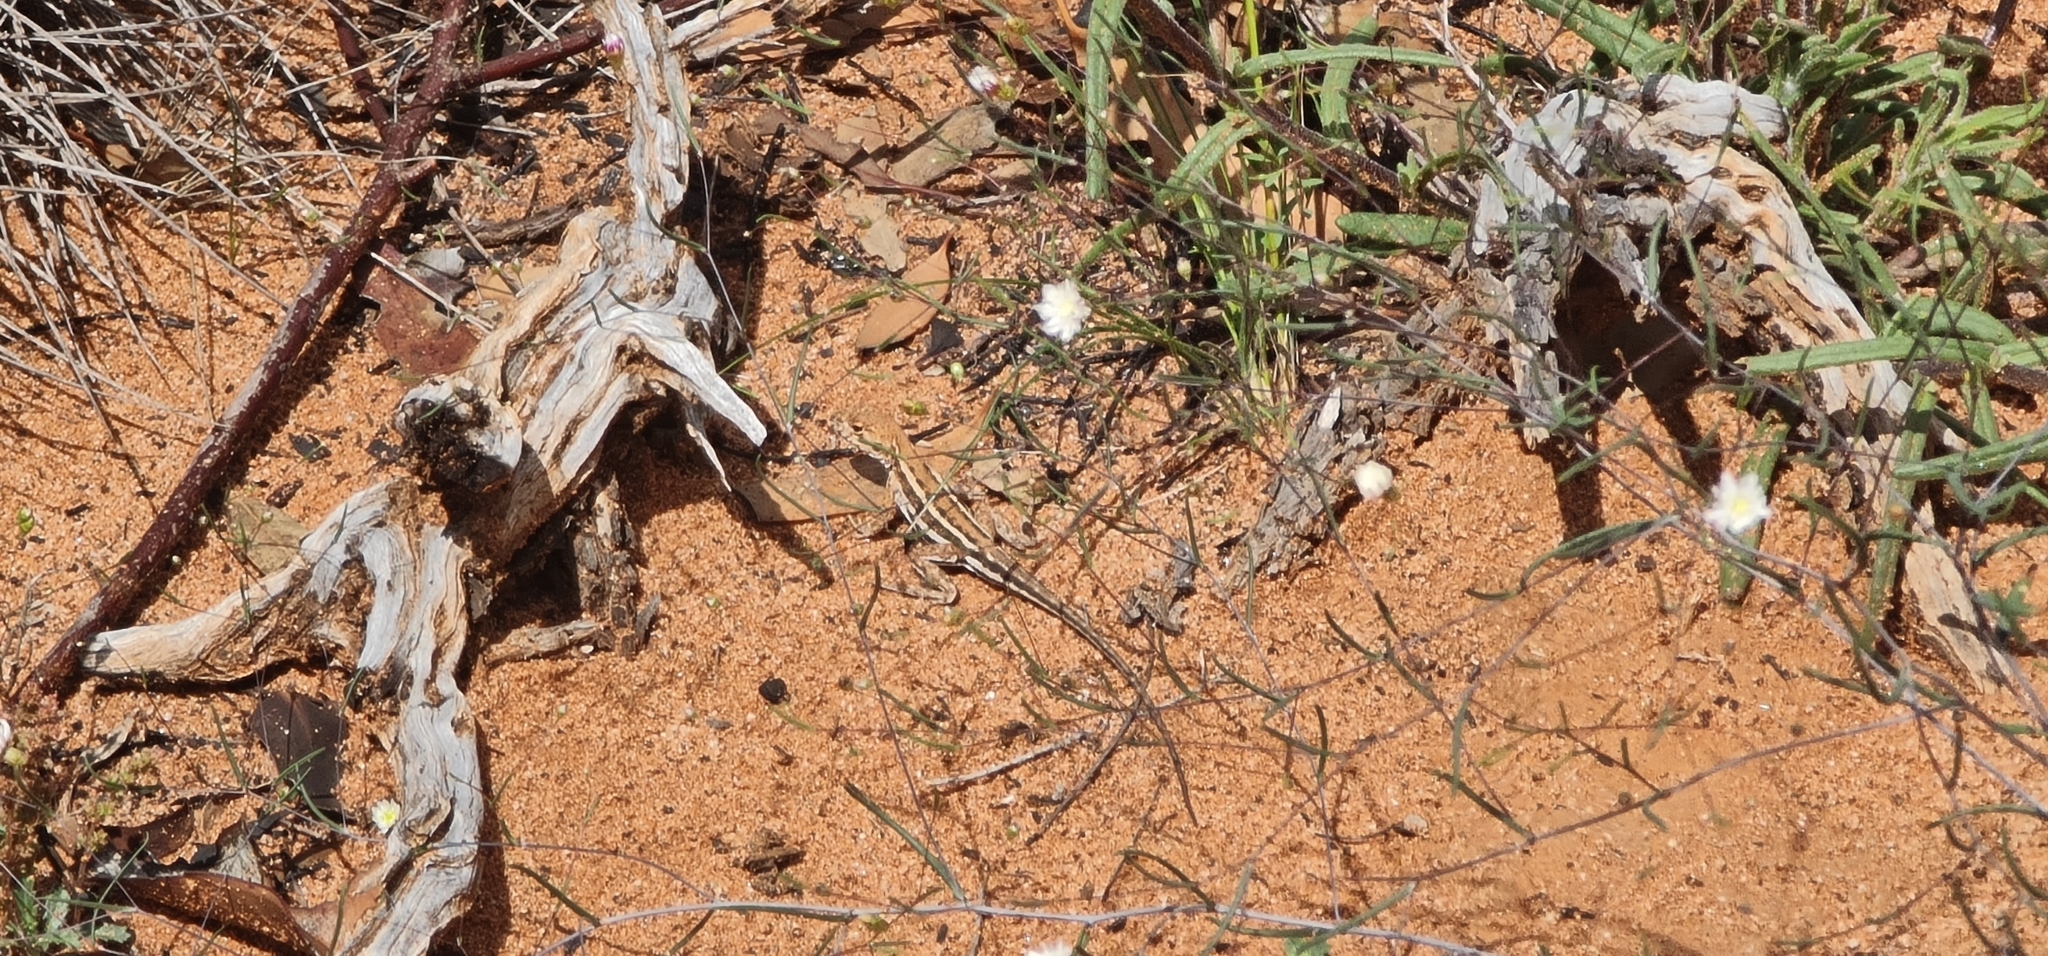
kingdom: Animalia
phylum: Chordata
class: Squamata
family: Agamidae
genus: Ctenophorus
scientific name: Ctenophorus spinodomus
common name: Eastern mallee dragon
